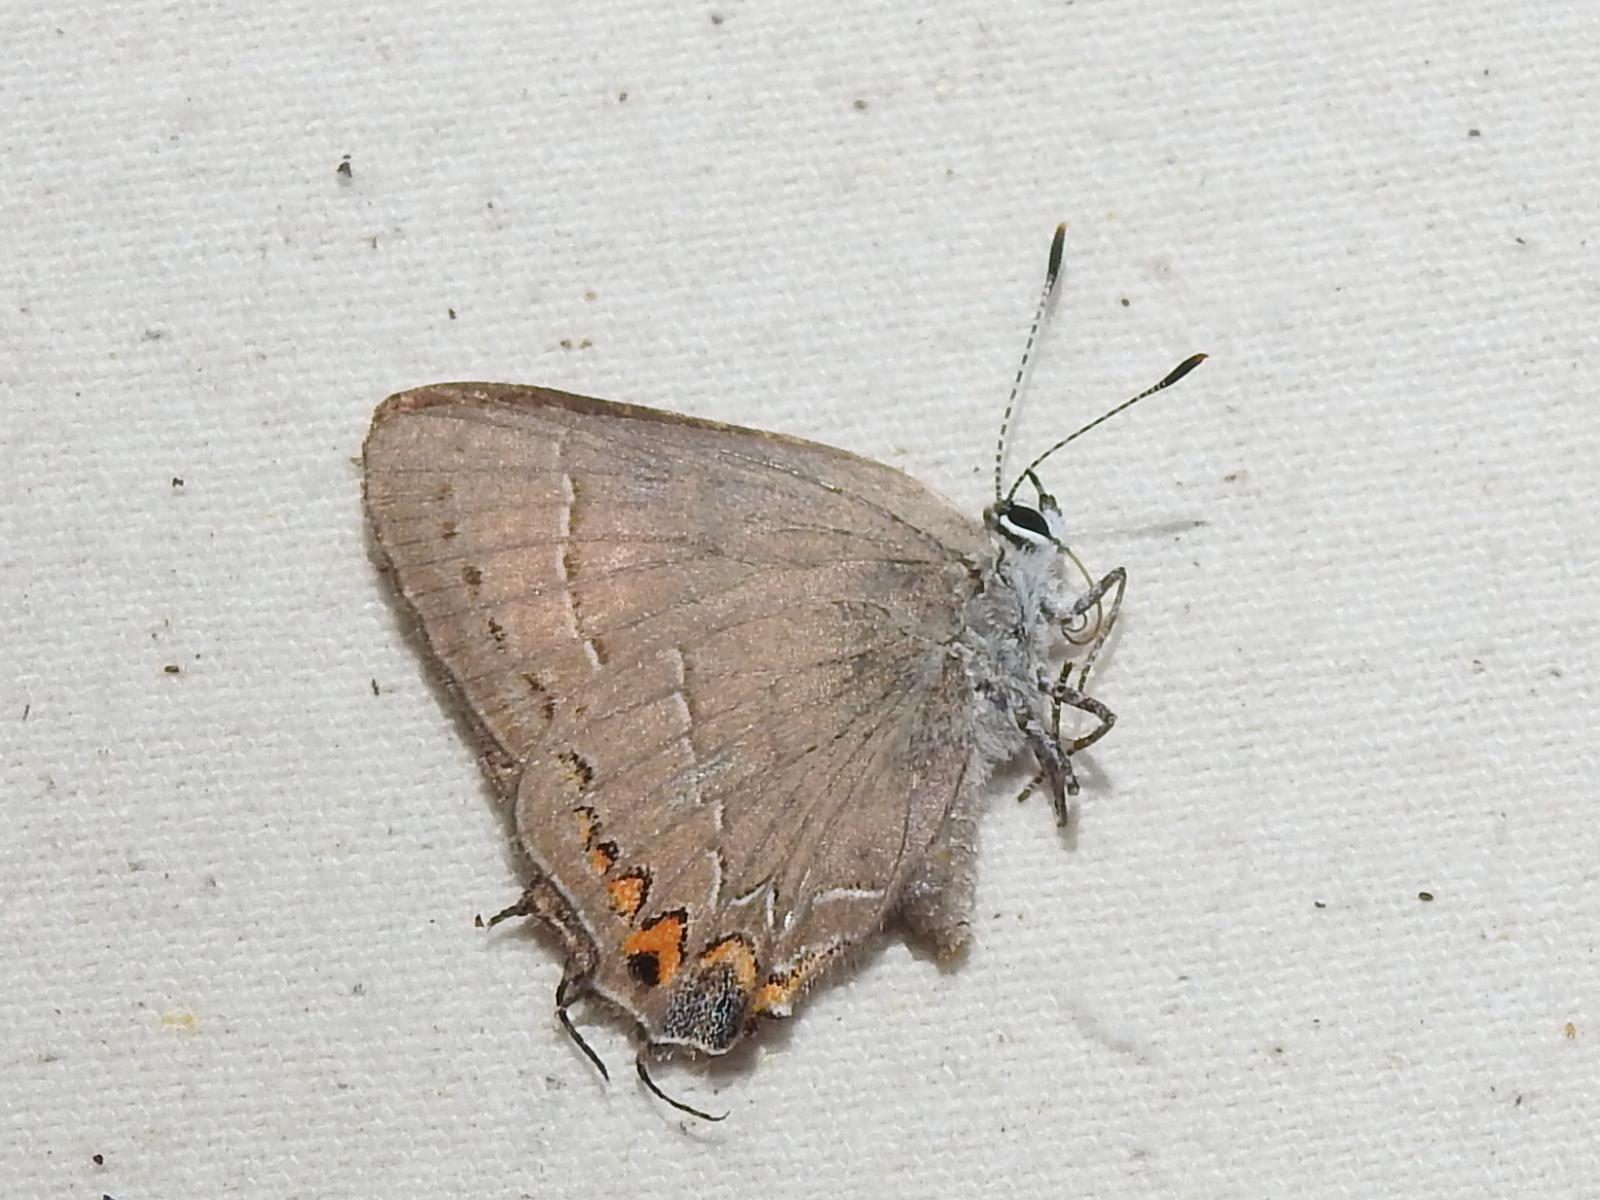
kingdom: Animalia
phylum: Arthropoda
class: Insecta
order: Lepidoptera
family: Lycaenidae
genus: Fixsenia
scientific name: Fixsenia favonius
